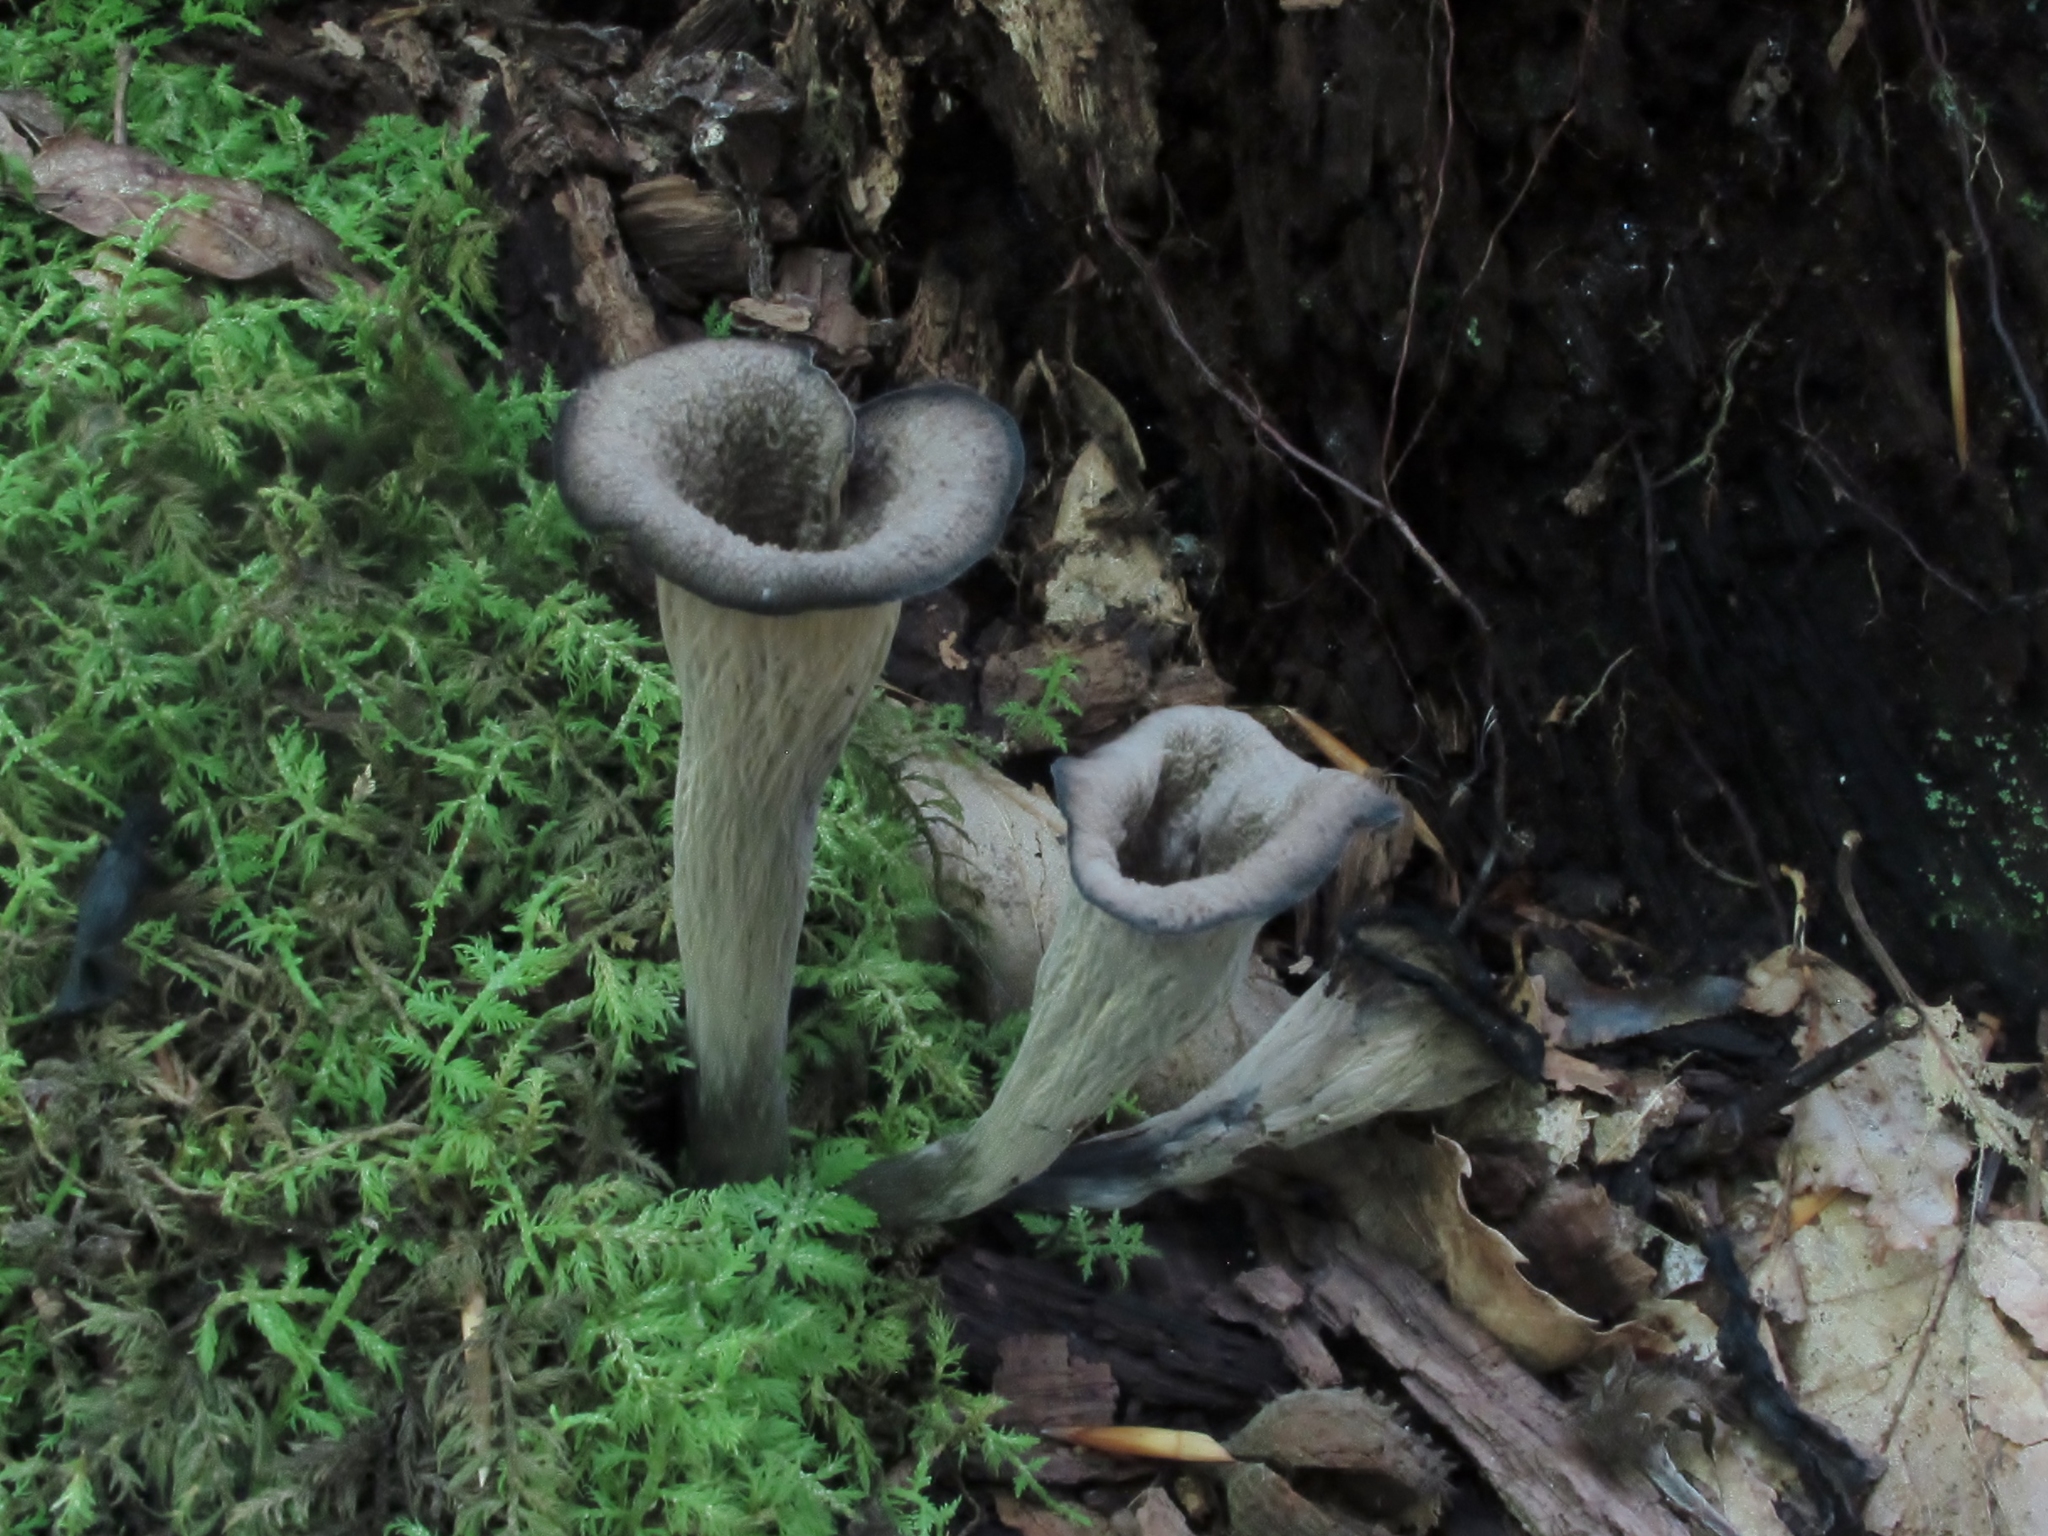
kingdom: Fungi
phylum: Basidiomycota
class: Agaricomycetes
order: Cantharellales
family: Hydnaceae
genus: Craterellus
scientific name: Craterellus cornucopioides
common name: Horn of plenty
